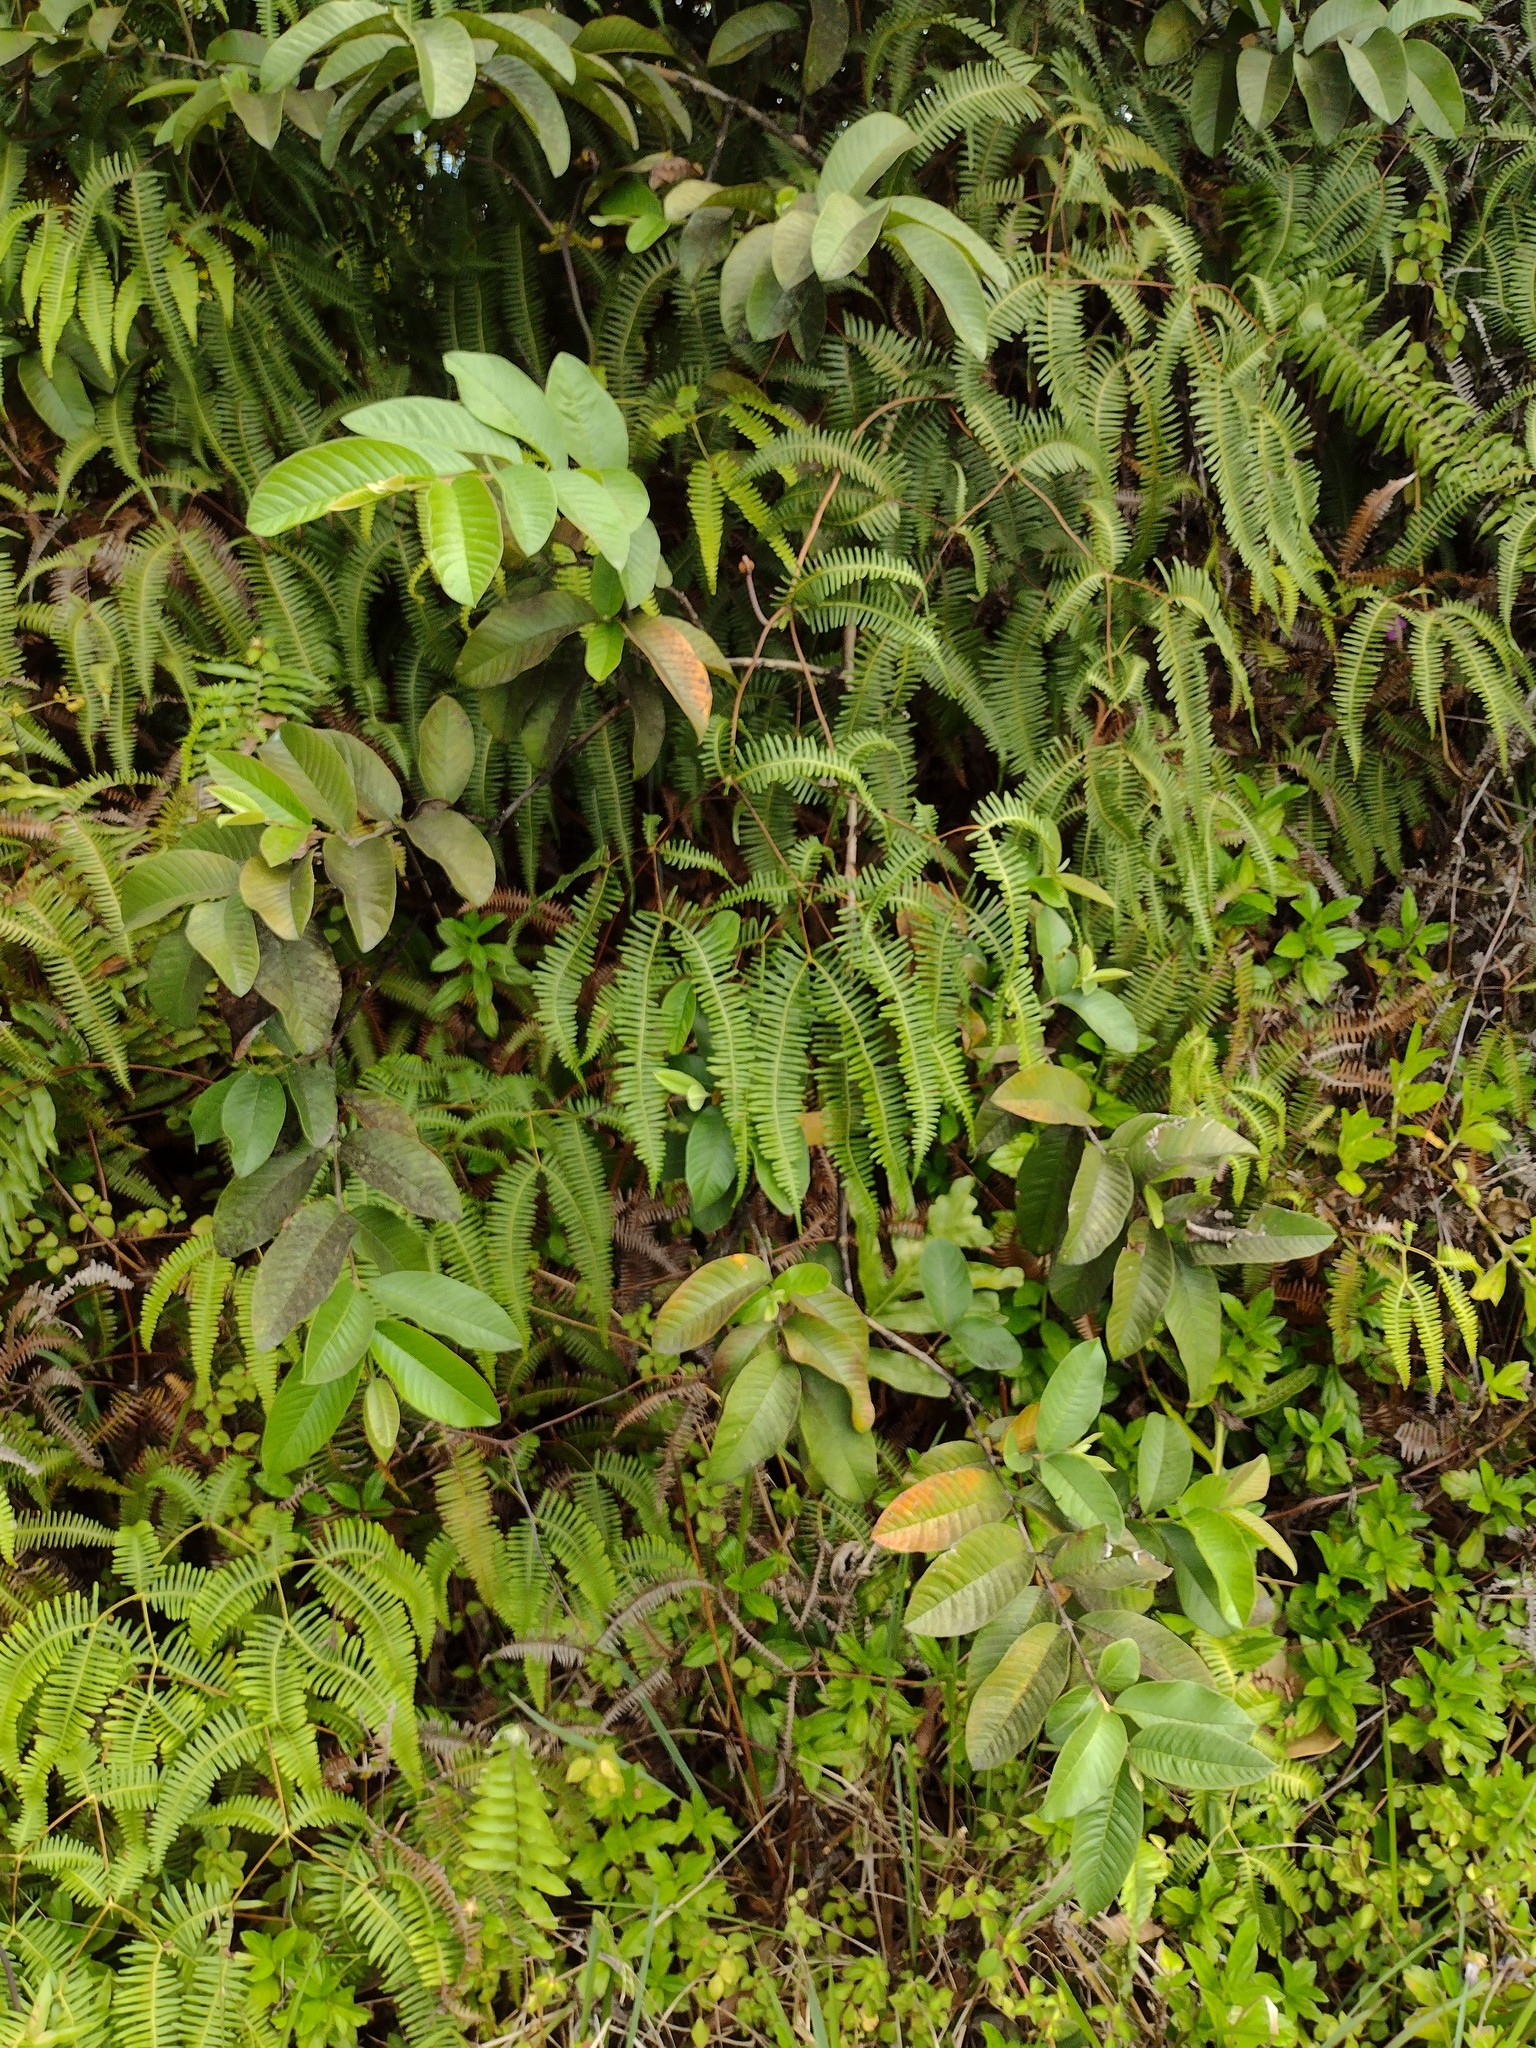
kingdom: Plantae
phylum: Tracheophyta
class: Magnoliopsida
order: Myrtales
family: Myrtaceae
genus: Psidium
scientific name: Psidium guajava
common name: Guava
